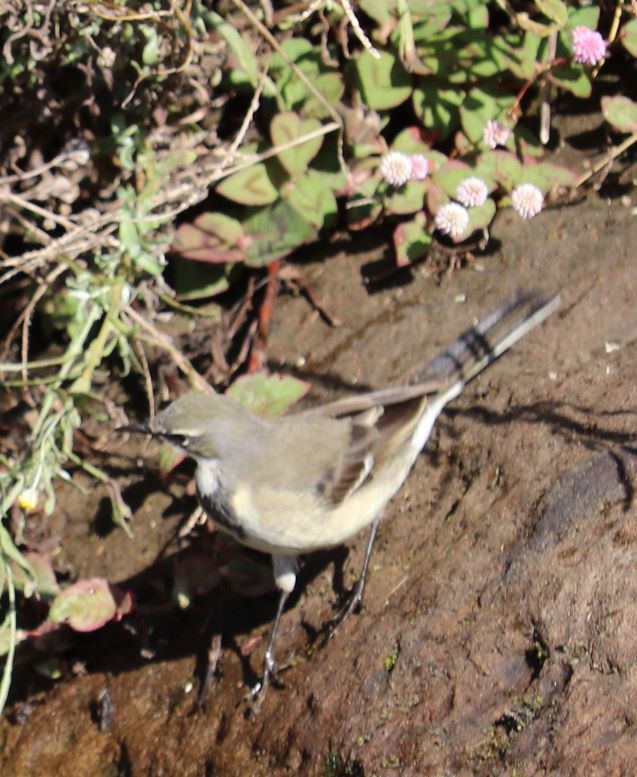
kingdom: Animalia
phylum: Chordata
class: Aves
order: Passeriformes
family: Motacillidae
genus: Motacilla
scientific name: Motacilla capensis
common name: Cape wagtail
